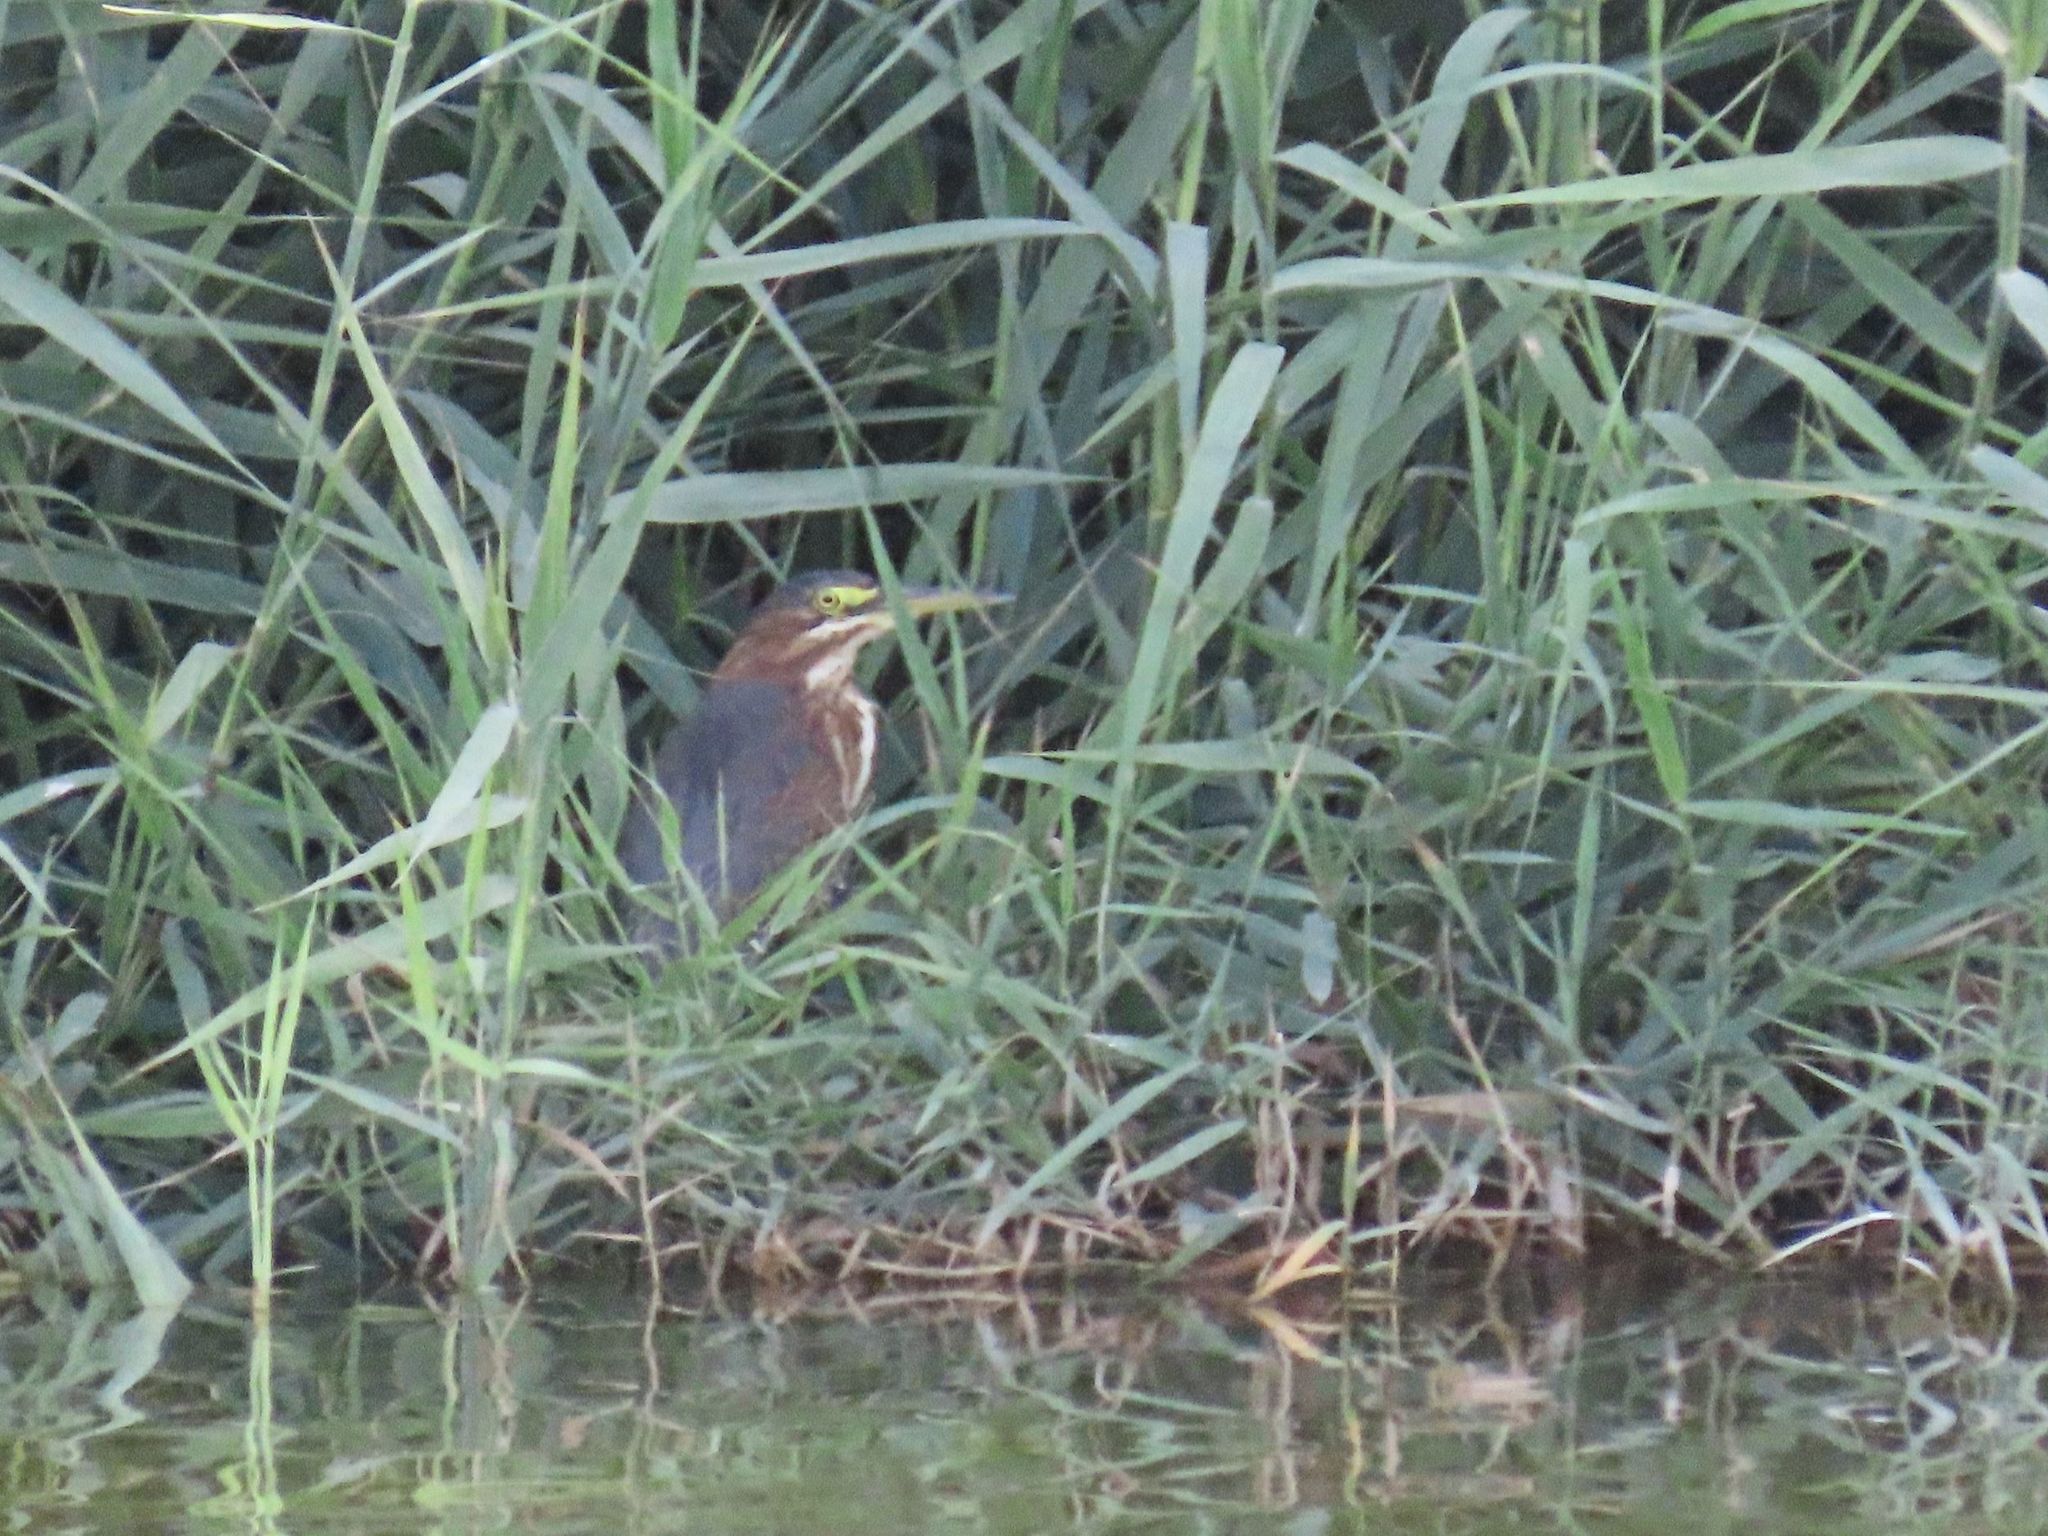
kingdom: Animalia
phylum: Chordata
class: Aves
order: Pelecaniformes
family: Ardeidae
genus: Butorides
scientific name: Butorides virescens
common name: Green heron
